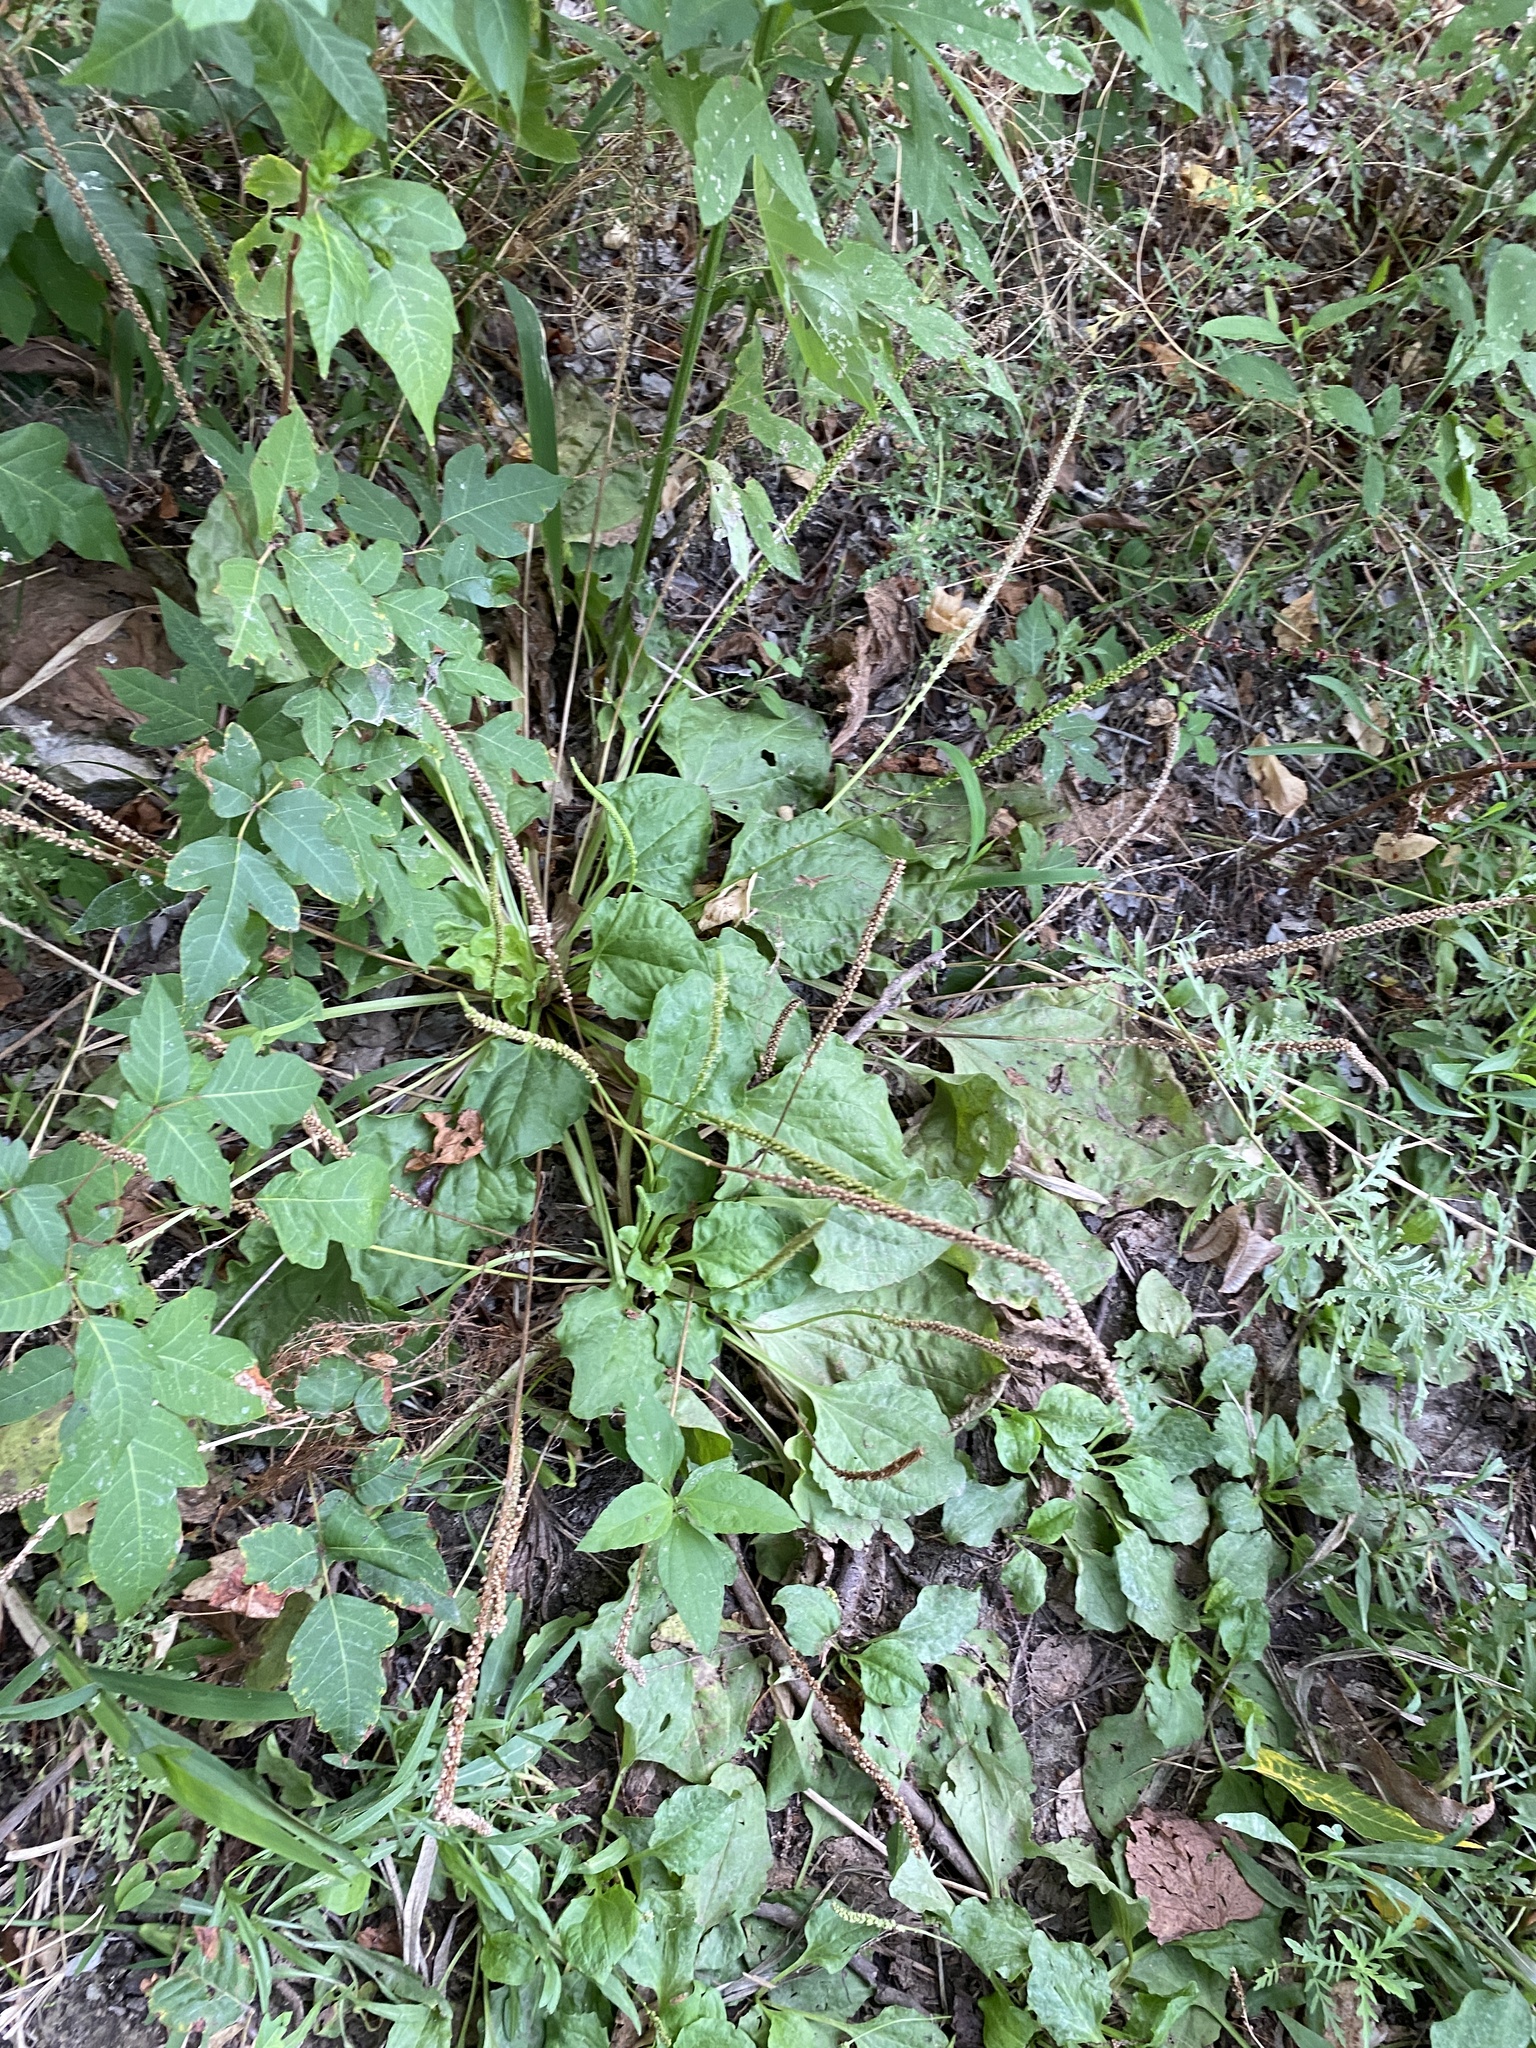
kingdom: Plantae
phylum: Tracheophyta
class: Magnoliopsida
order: Lamiales
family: Plantaginaceae
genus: Plantago
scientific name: Plantago major
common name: Common plantain
